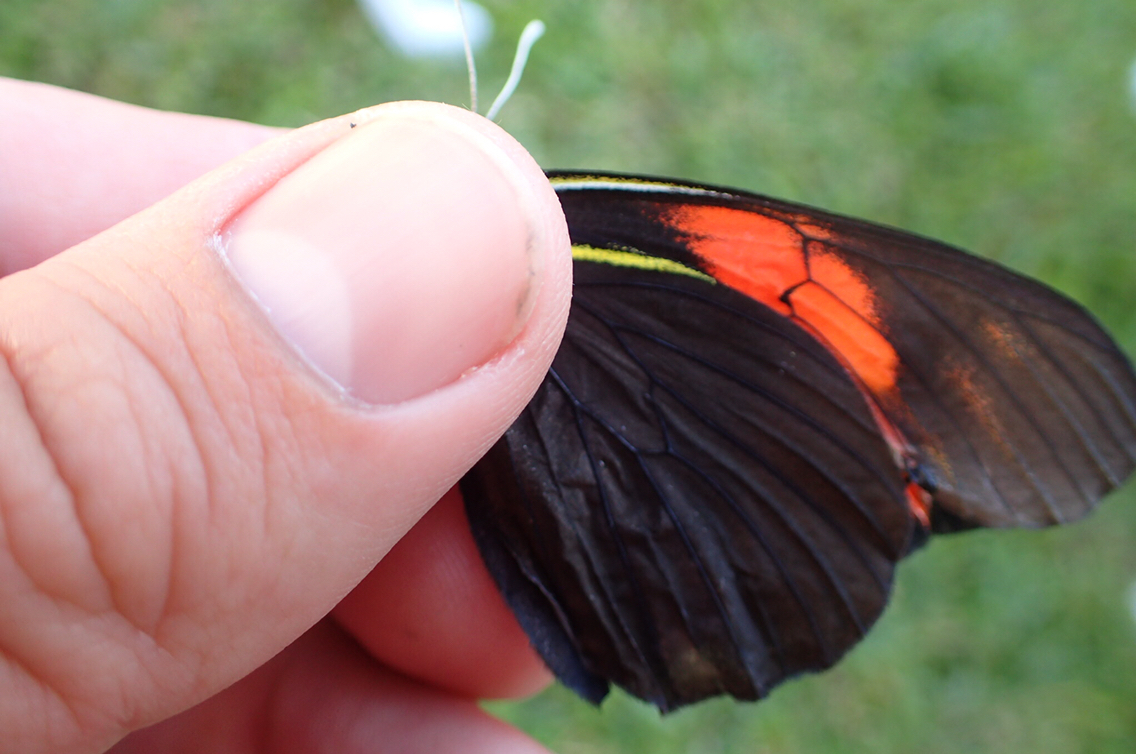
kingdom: Animalia
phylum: Arthropoda
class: Insecta
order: Lepidoptera
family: Pieridae
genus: Pereute
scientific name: Pereute charops
